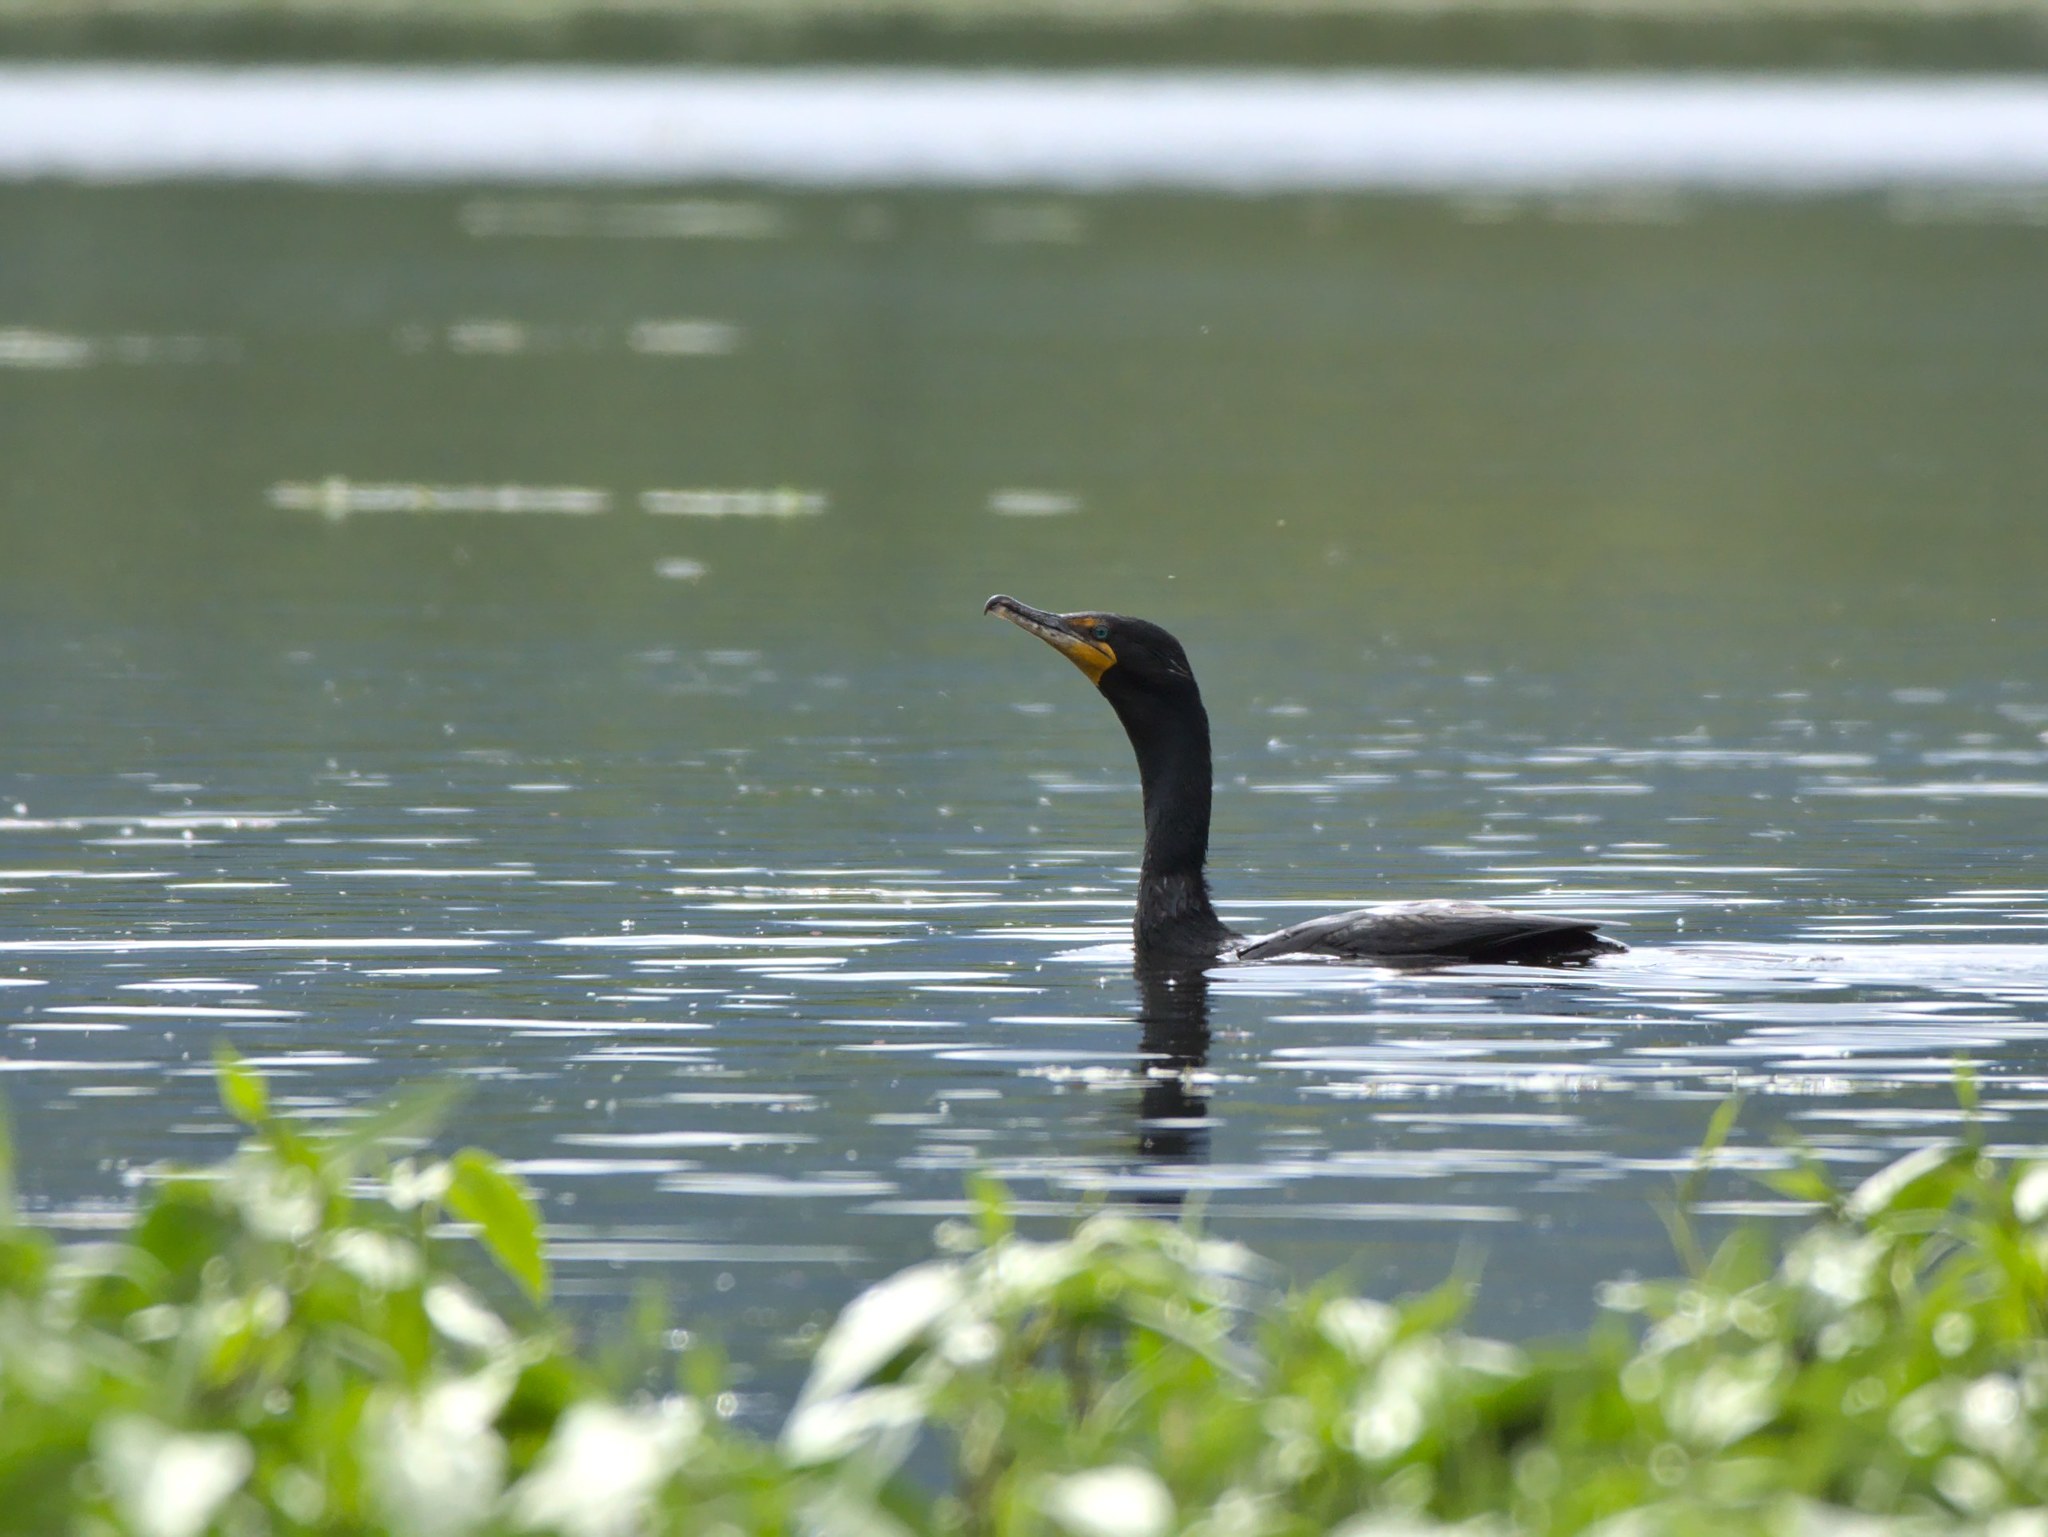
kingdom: Animalia
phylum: Chordata
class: Aves
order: Suliformes
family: Phalacrocoracidae
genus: Phalacrocorax
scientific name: Phalacrocorax auritus
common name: Double-crested cormorant
